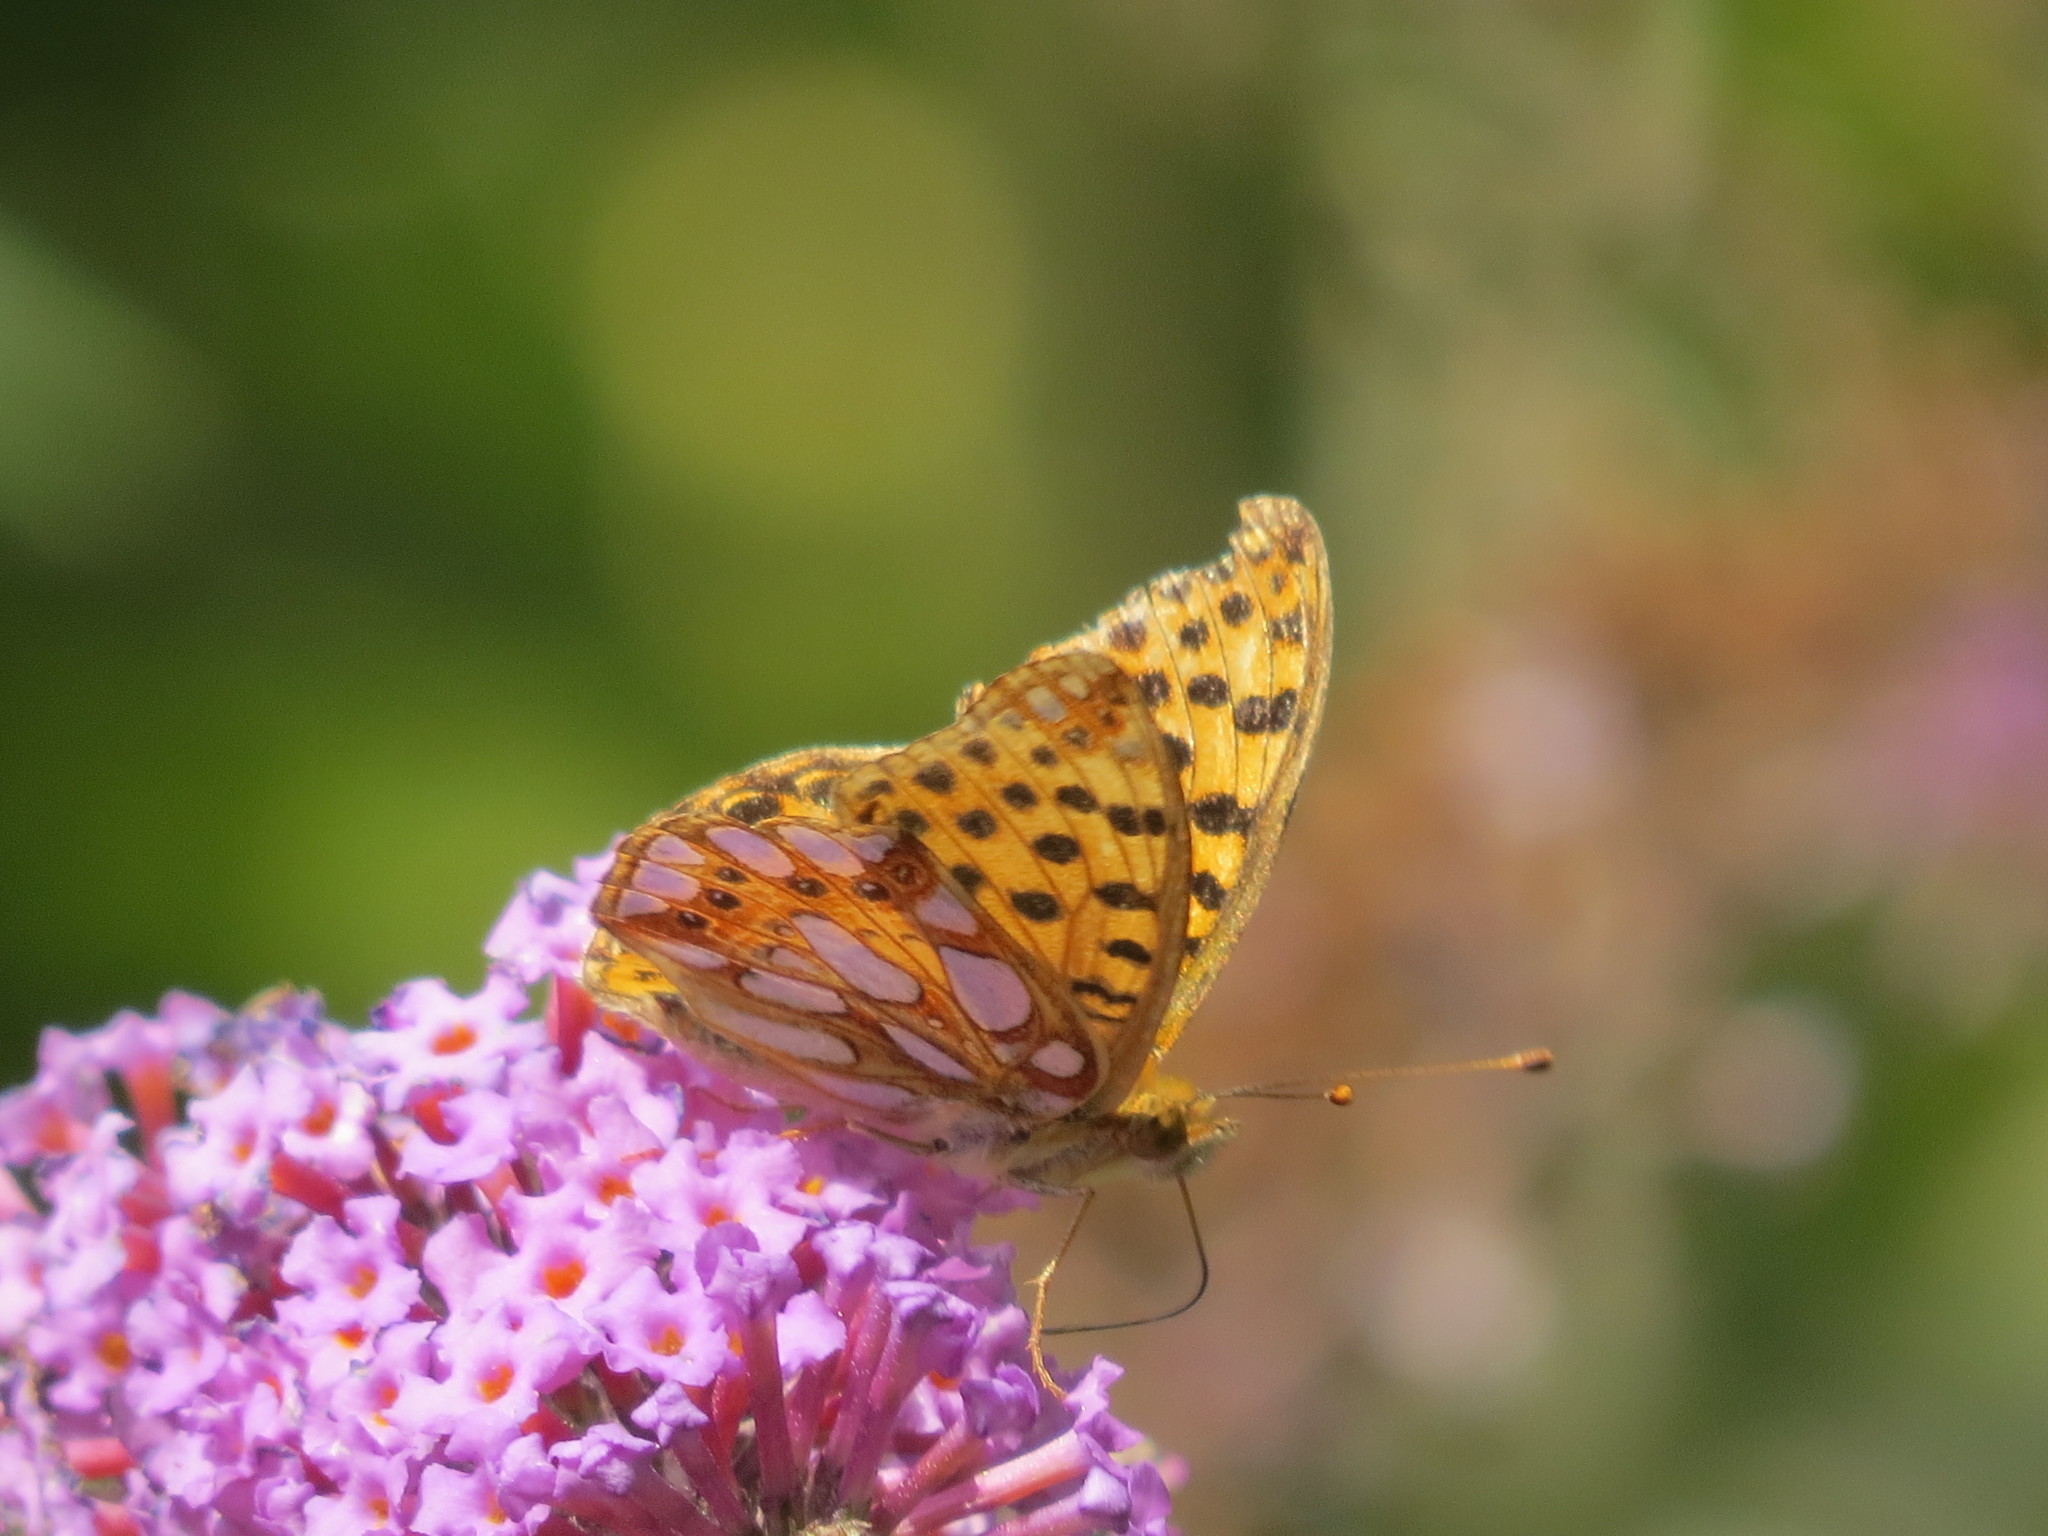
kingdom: Animalia
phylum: Arthropoda
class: Insecta
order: Lepidoptera
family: Nymphalidae
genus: Issoria
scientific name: Issoria lathonia
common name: Queen of spain fritillary
